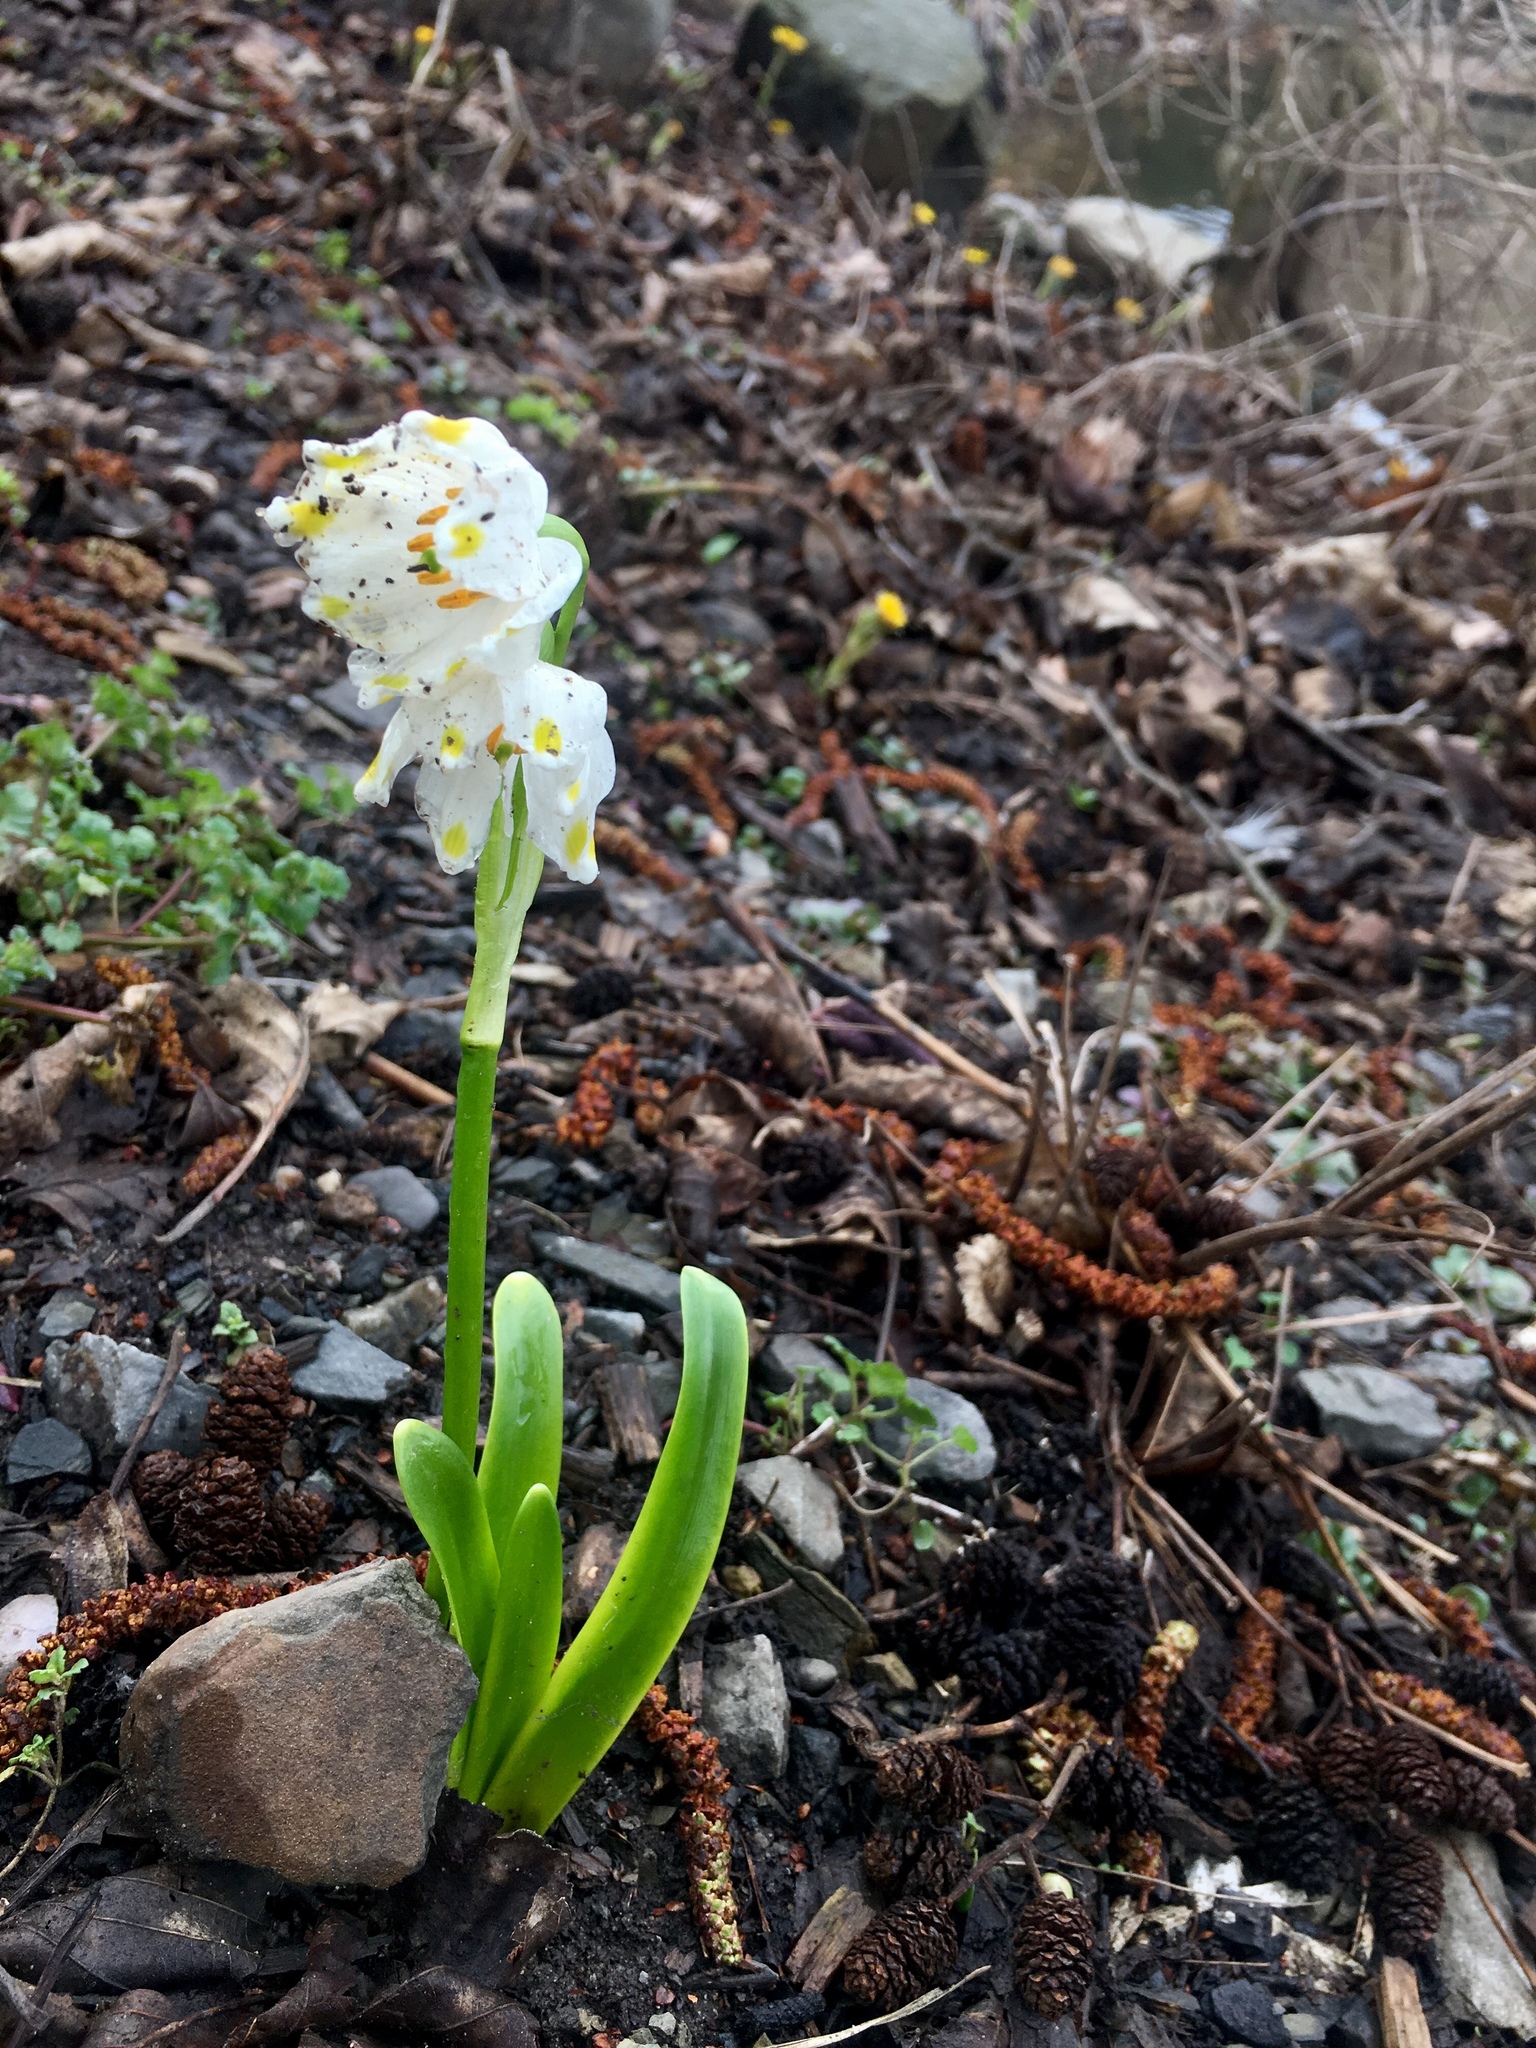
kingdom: Plantae
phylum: Tracheophyta
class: Liliopsida
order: Asparagales
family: Amaryllidaceae
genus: Leucojum
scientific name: Leucojum vernum
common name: Spring snowflake
